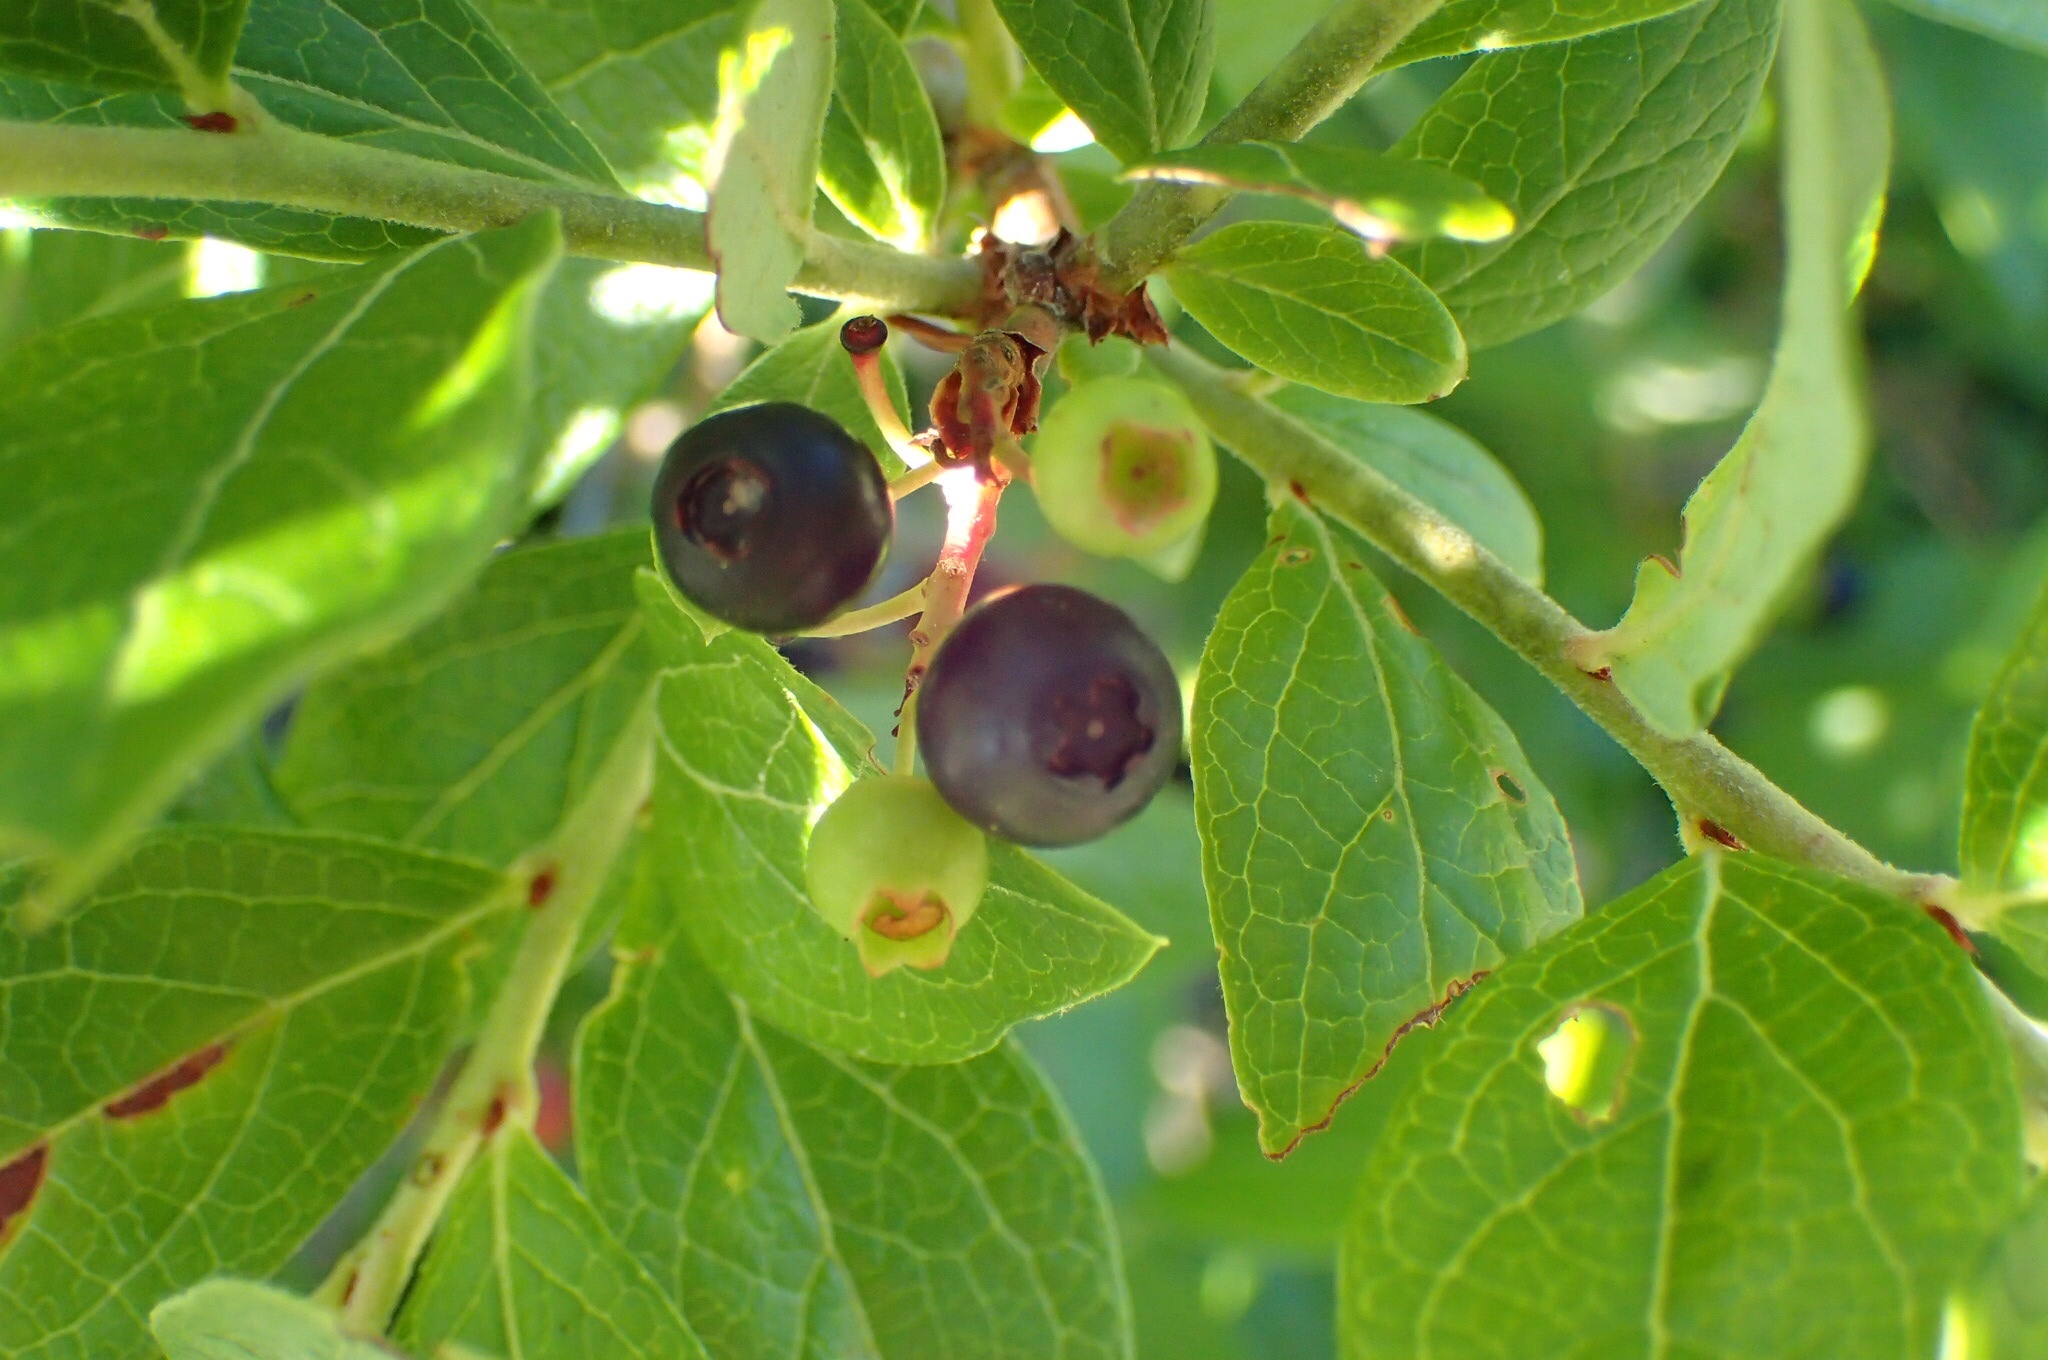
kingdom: Plantae
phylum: Tracheophyta
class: Magnoliopsida
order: Ericales
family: Ericaceae
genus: Vaccinium
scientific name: Vaccinium corymbosum
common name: Blueberry
